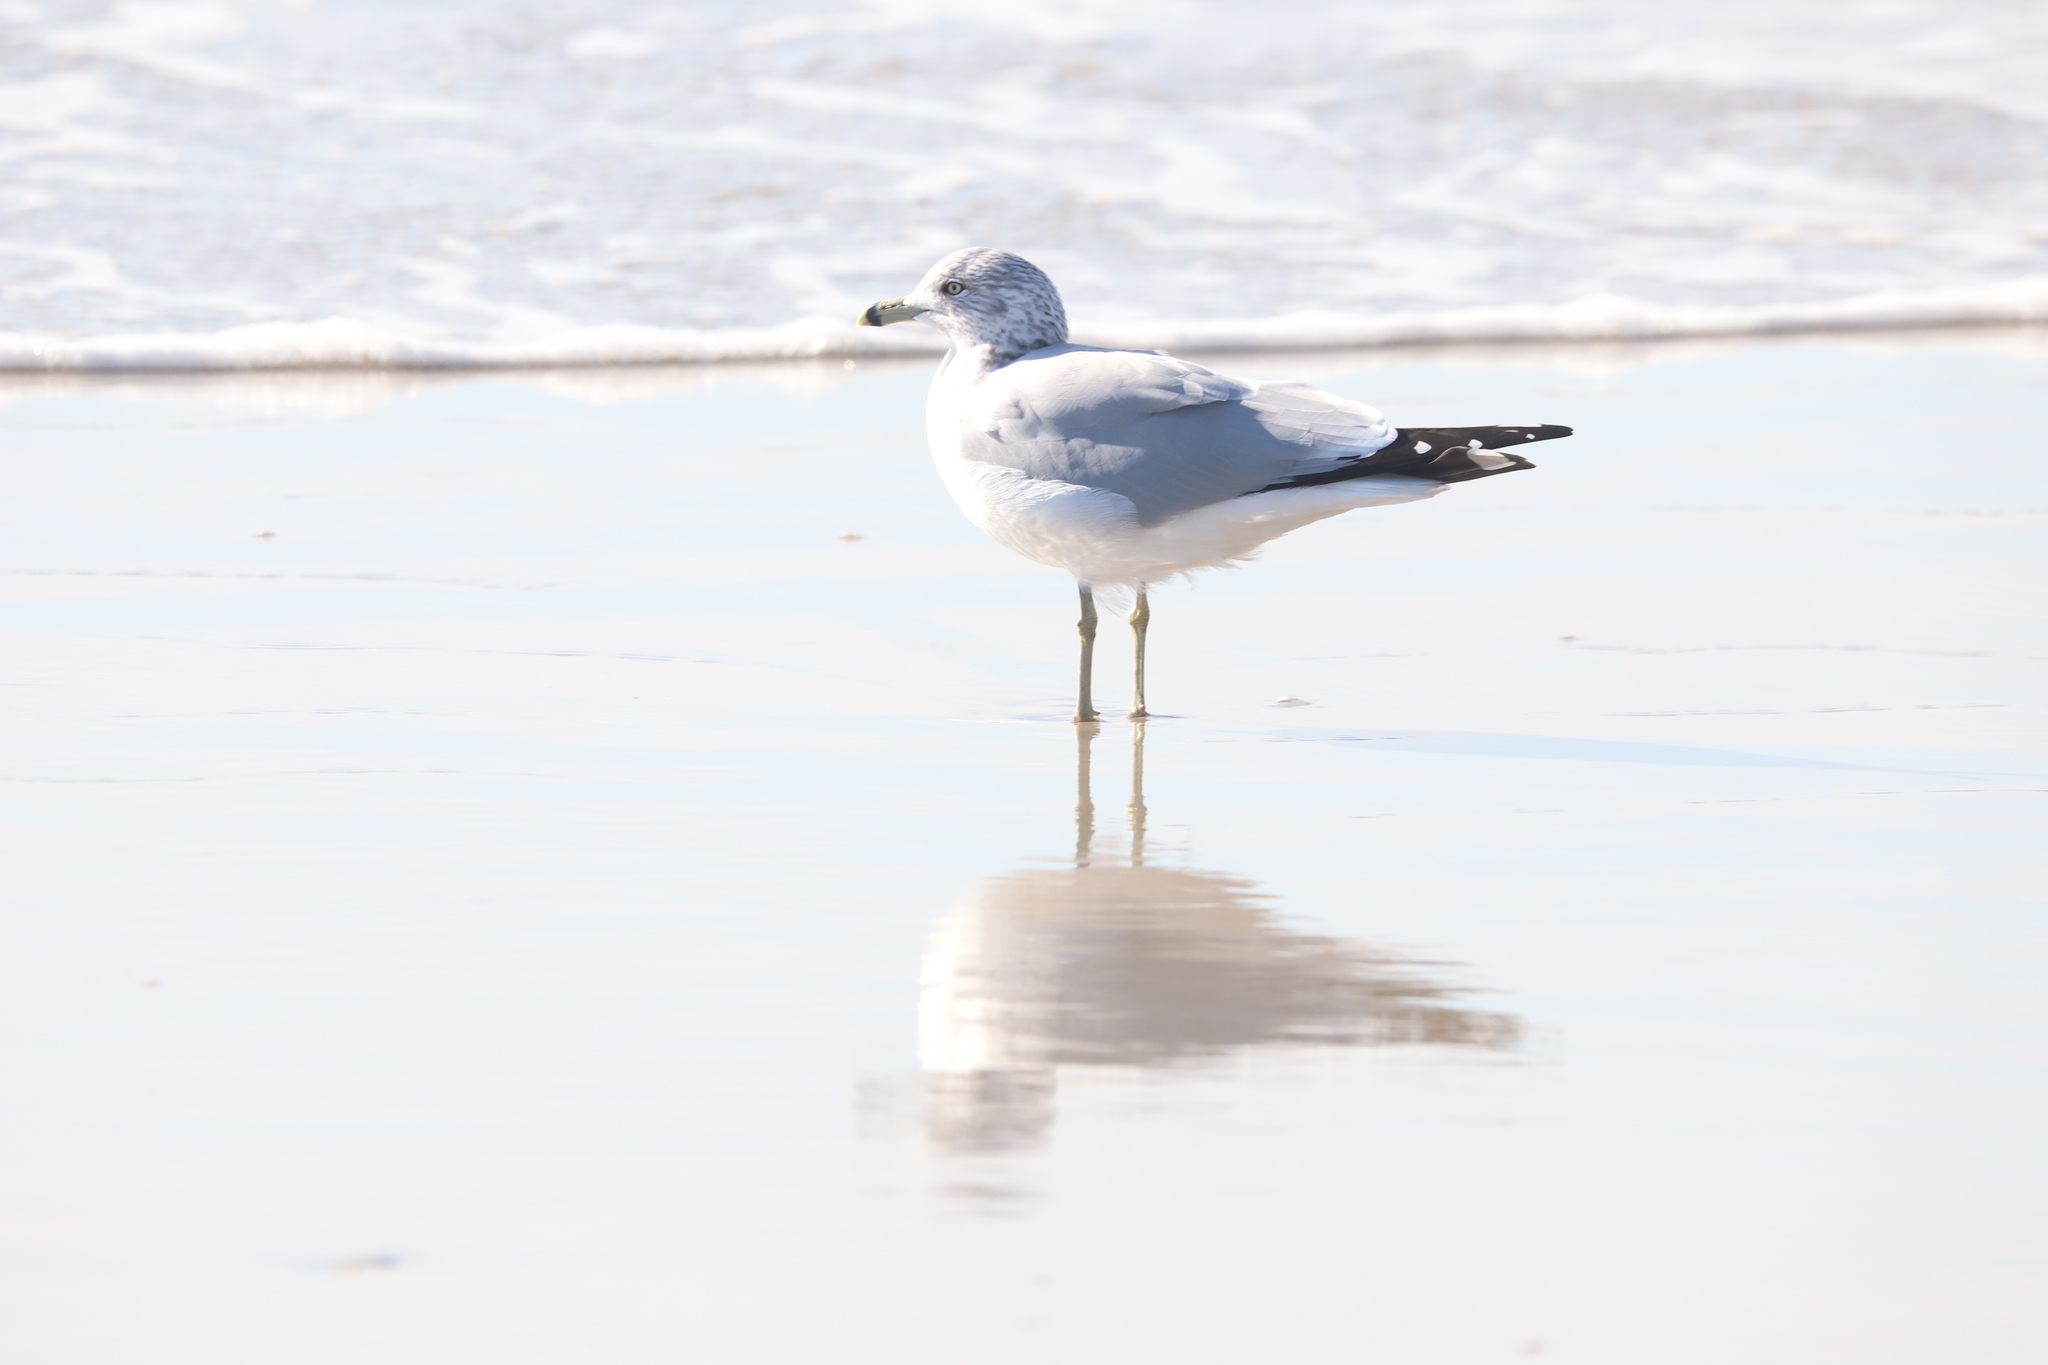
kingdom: Animalia
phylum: Chordata
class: Aves
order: Charadriiformes
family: Laridae
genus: Larus
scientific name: Larus delawarensis
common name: Ring-billed gull
